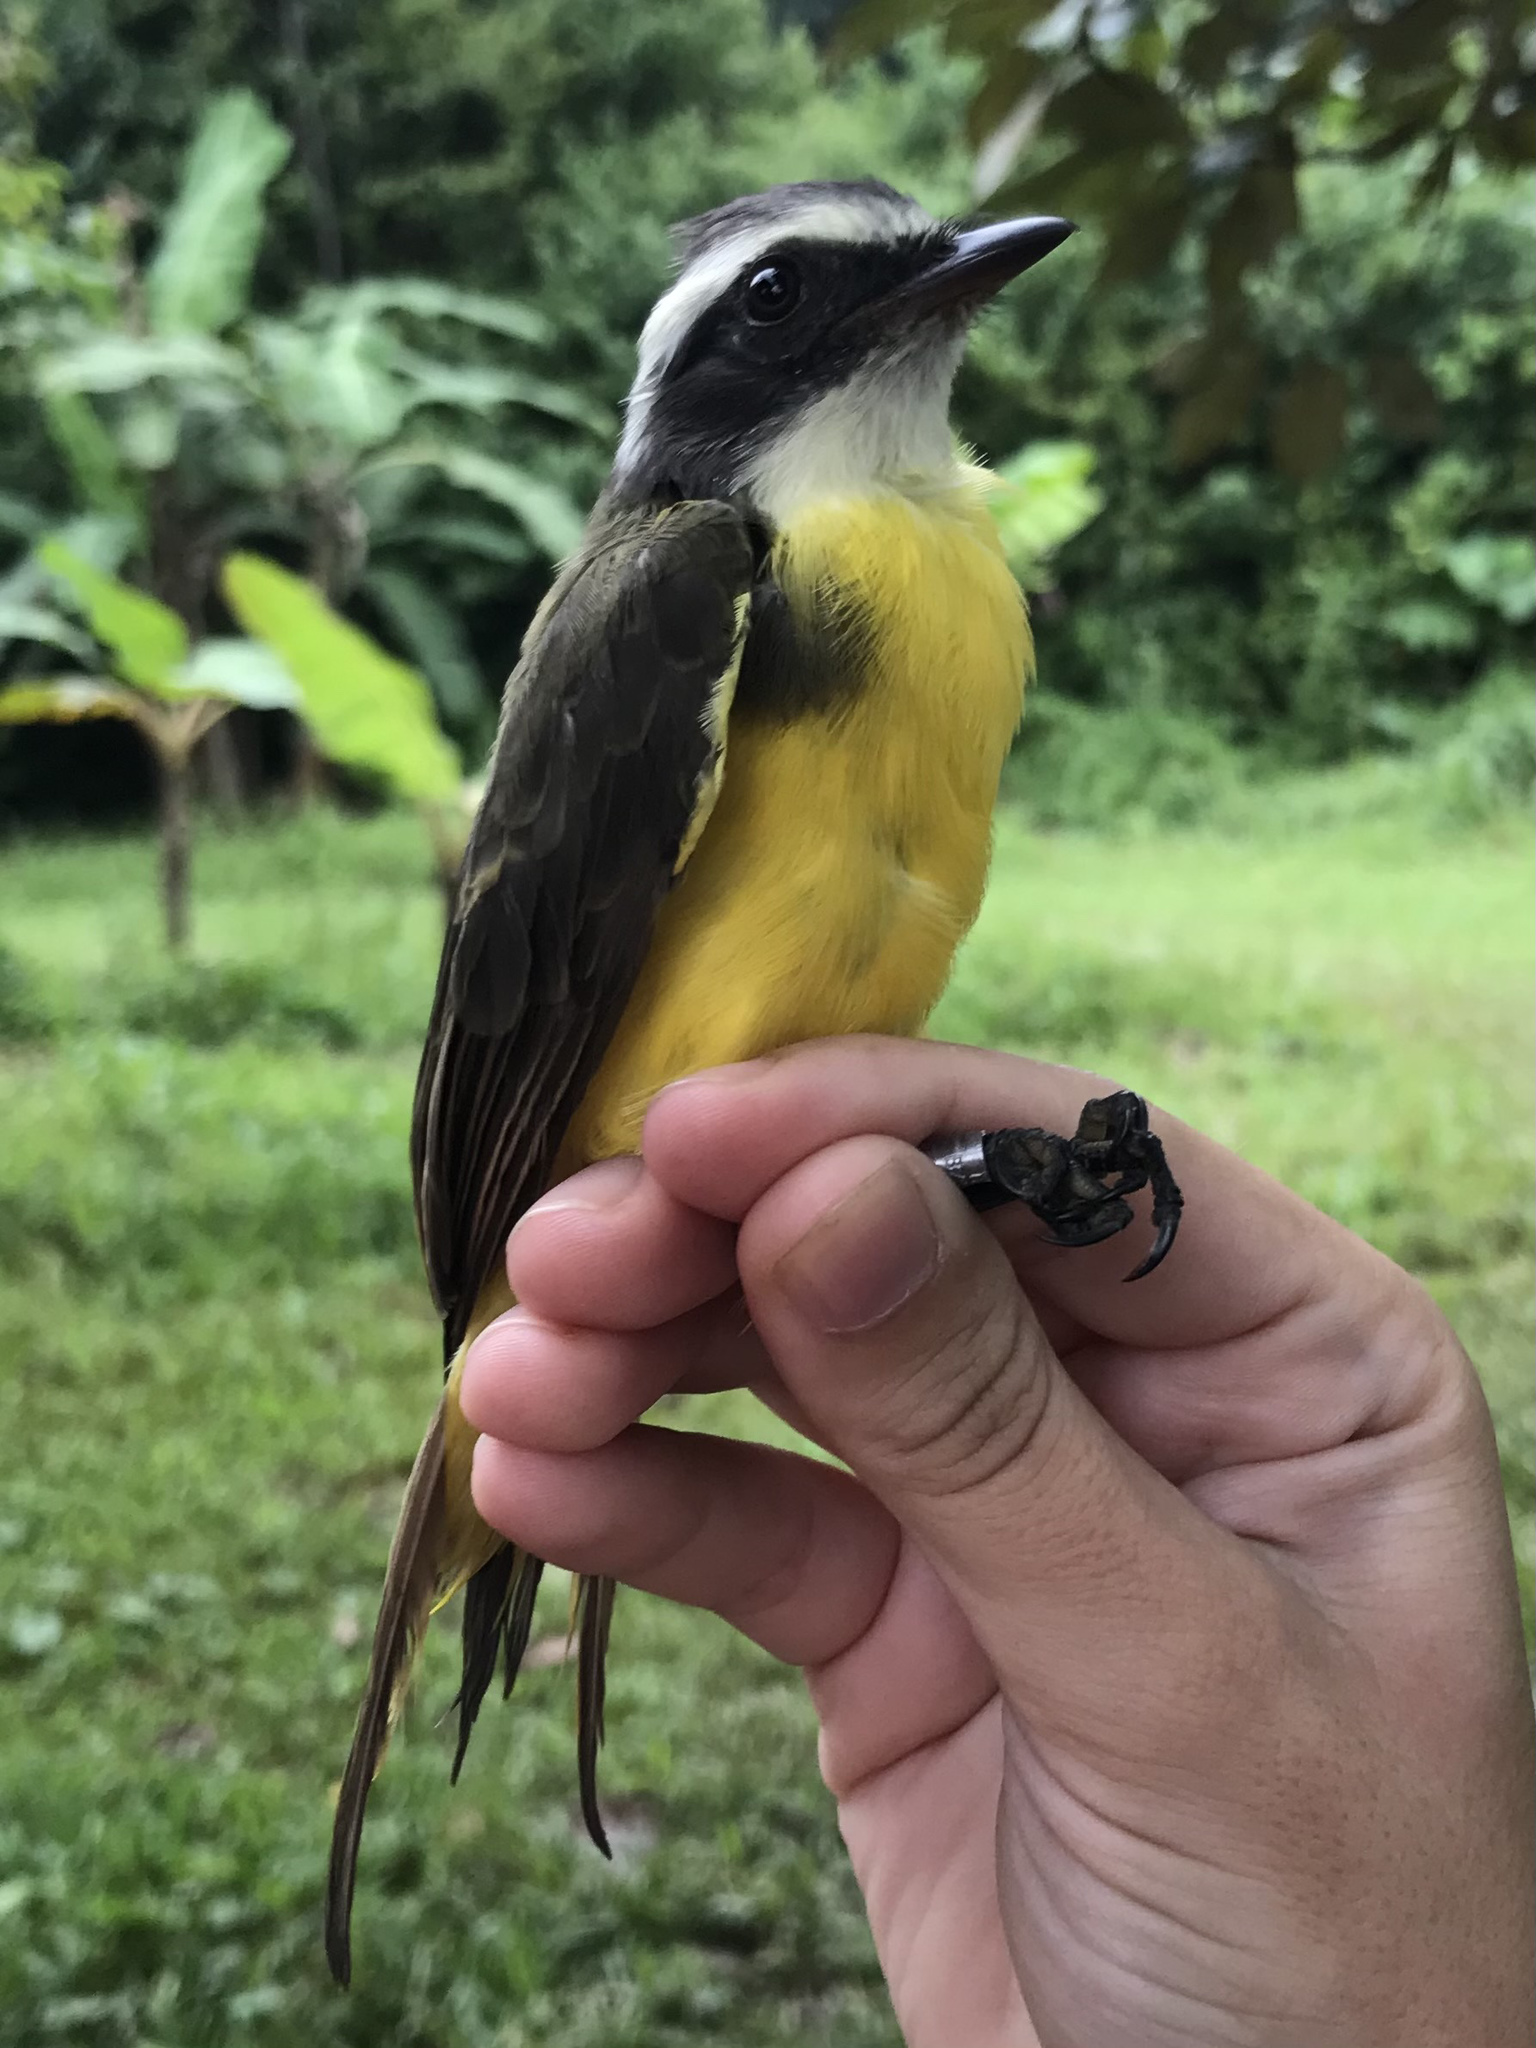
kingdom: Animalia
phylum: Chordata
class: Aves
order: Passeriformes
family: Tyrannidae
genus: Myiozetetes
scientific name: Myiozetetes similis
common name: Social flycatcher
